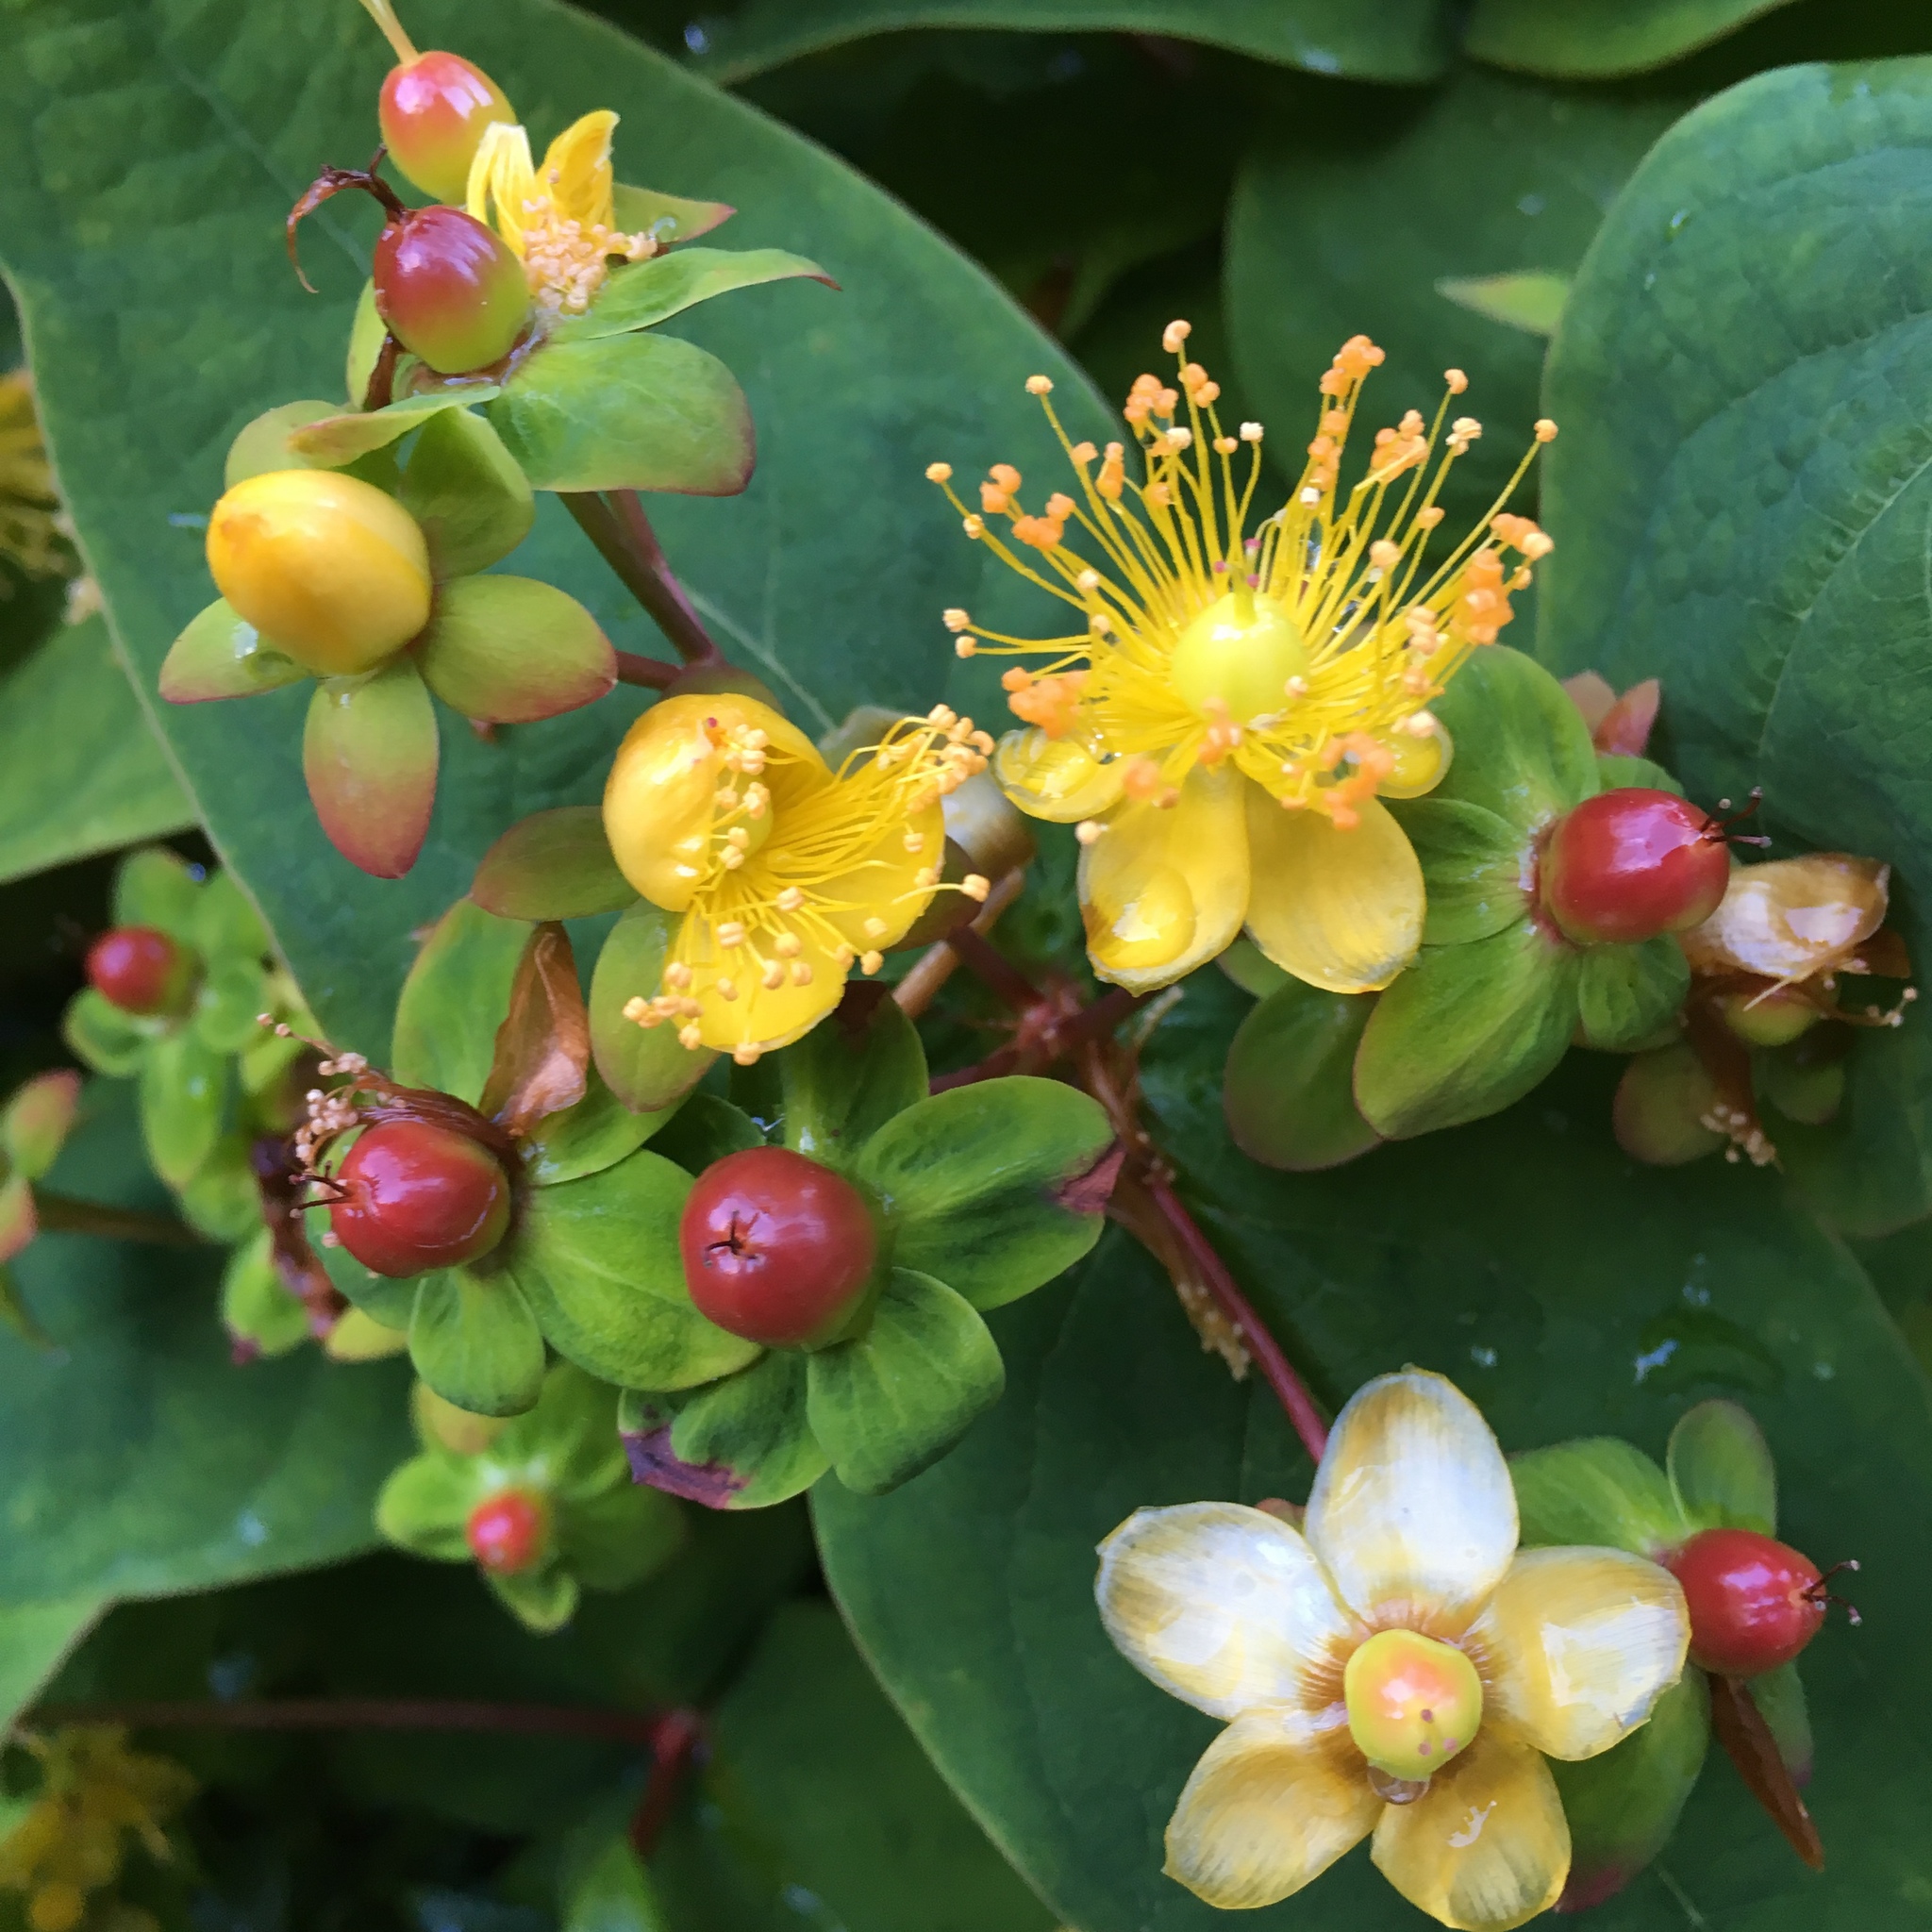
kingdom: Plantae
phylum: Tracheophyta
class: Magnoliopsida
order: Malpighiales
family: Hypericaceae
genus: Hypericum
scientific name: Hypericum androsaemum
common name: Sweet-amber
